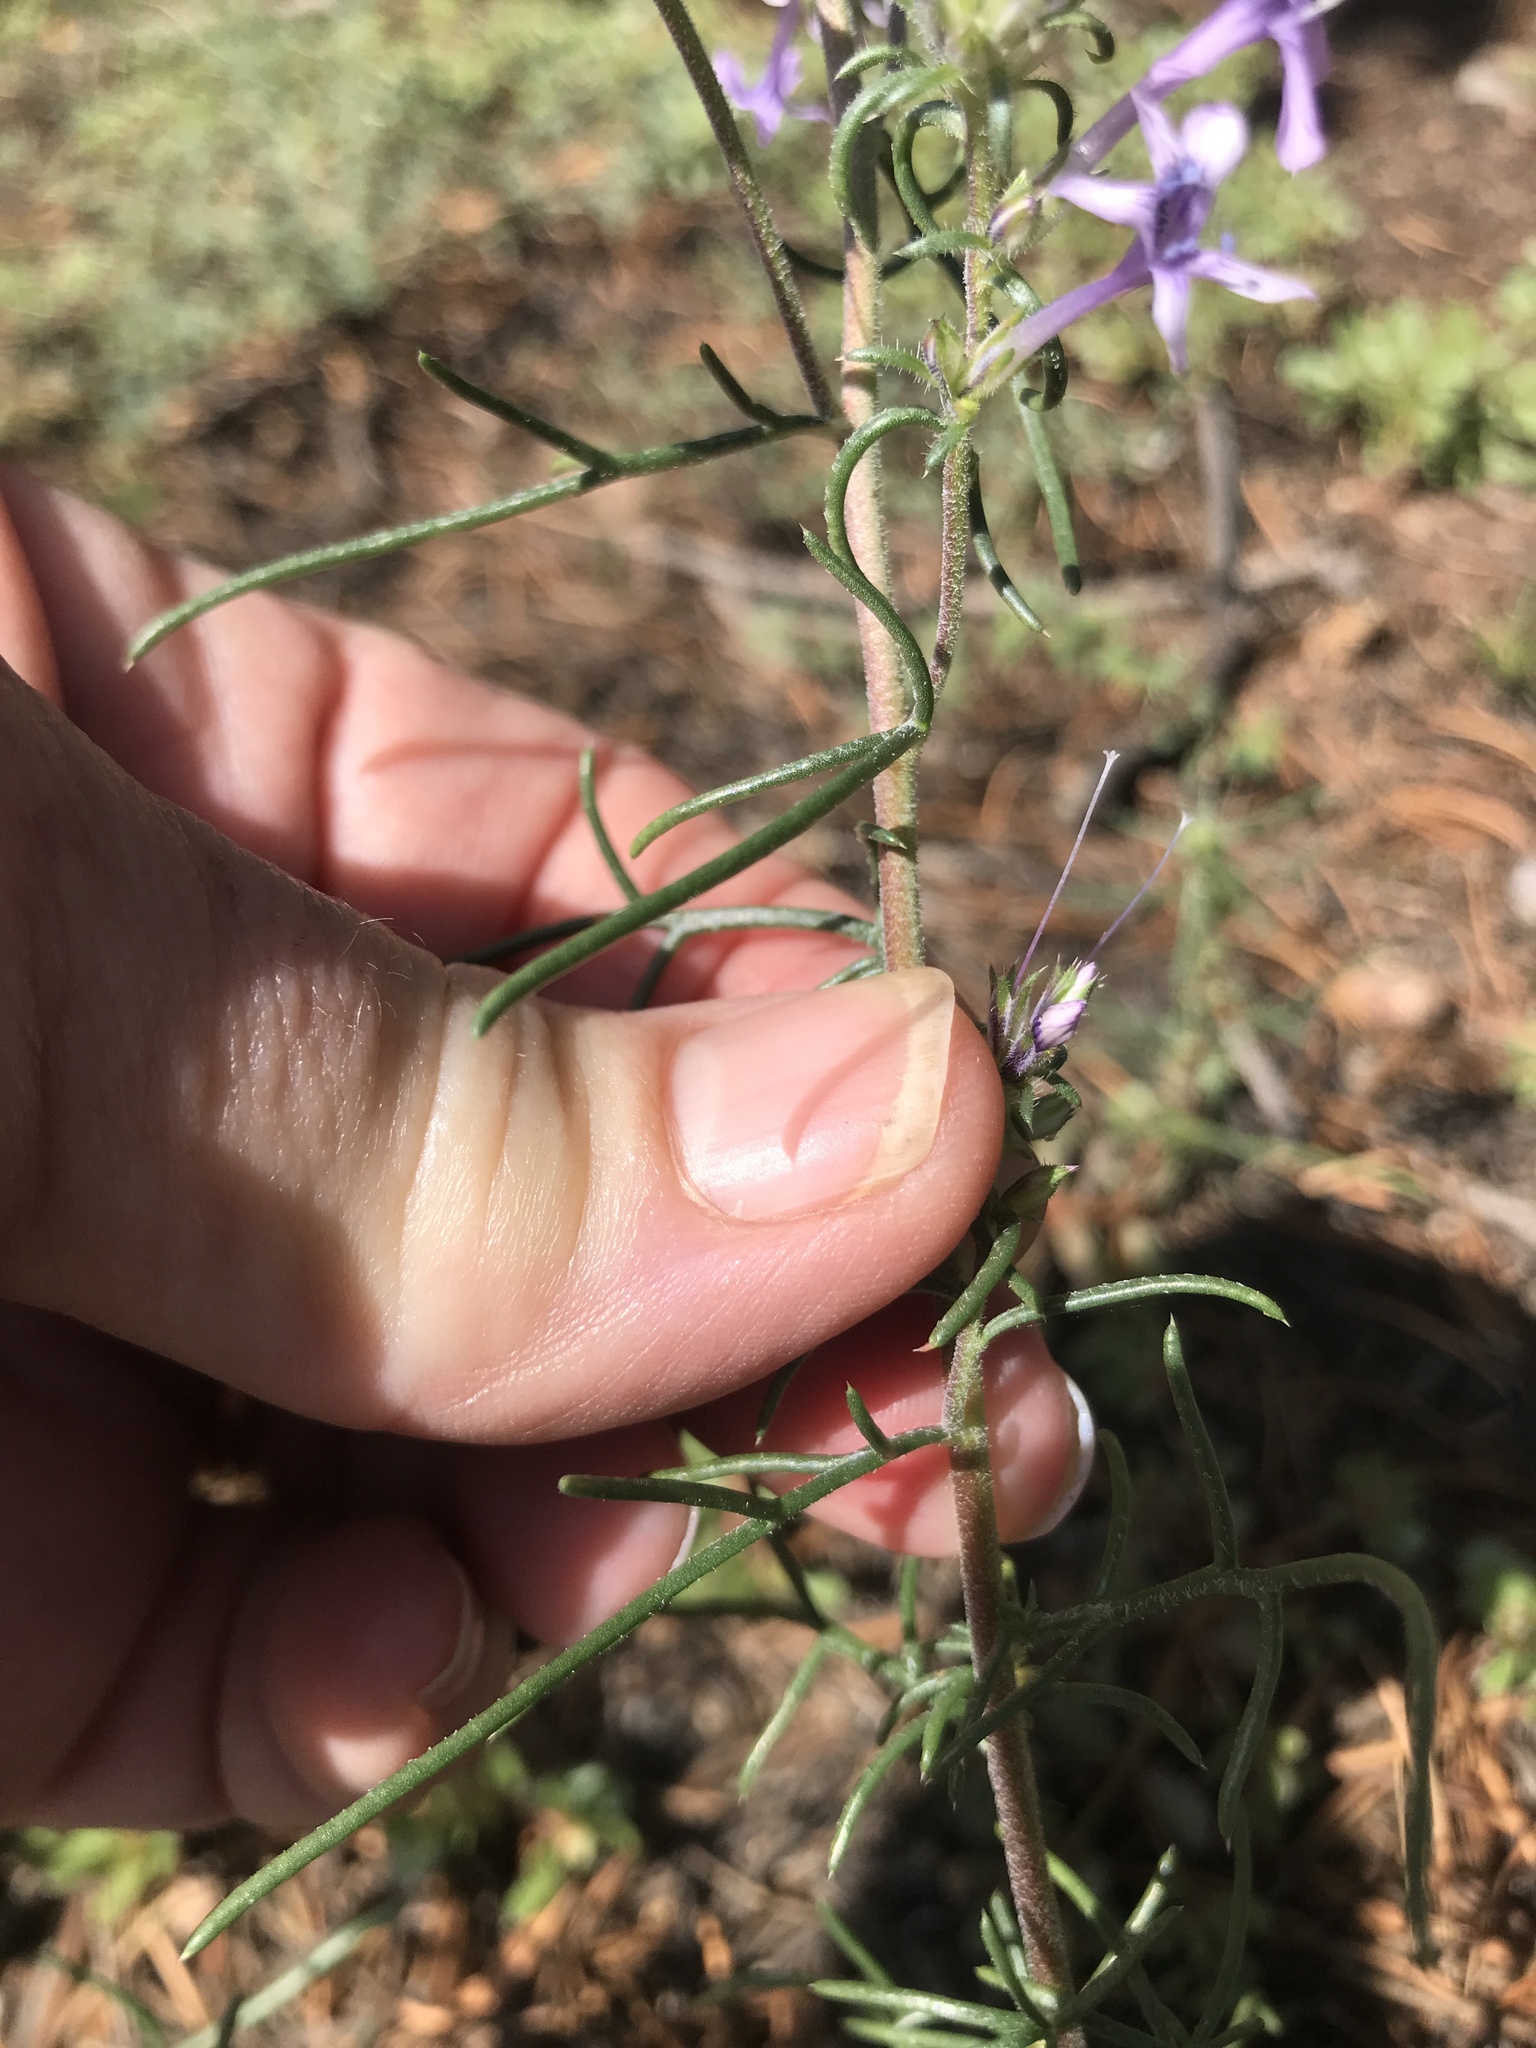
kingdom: Plantae
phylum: Tracheophyta
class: Magnoliopsida
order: Ericales
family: Polemoniaceae
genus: Ipomopsis
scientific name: Ipomopsis multiflora
